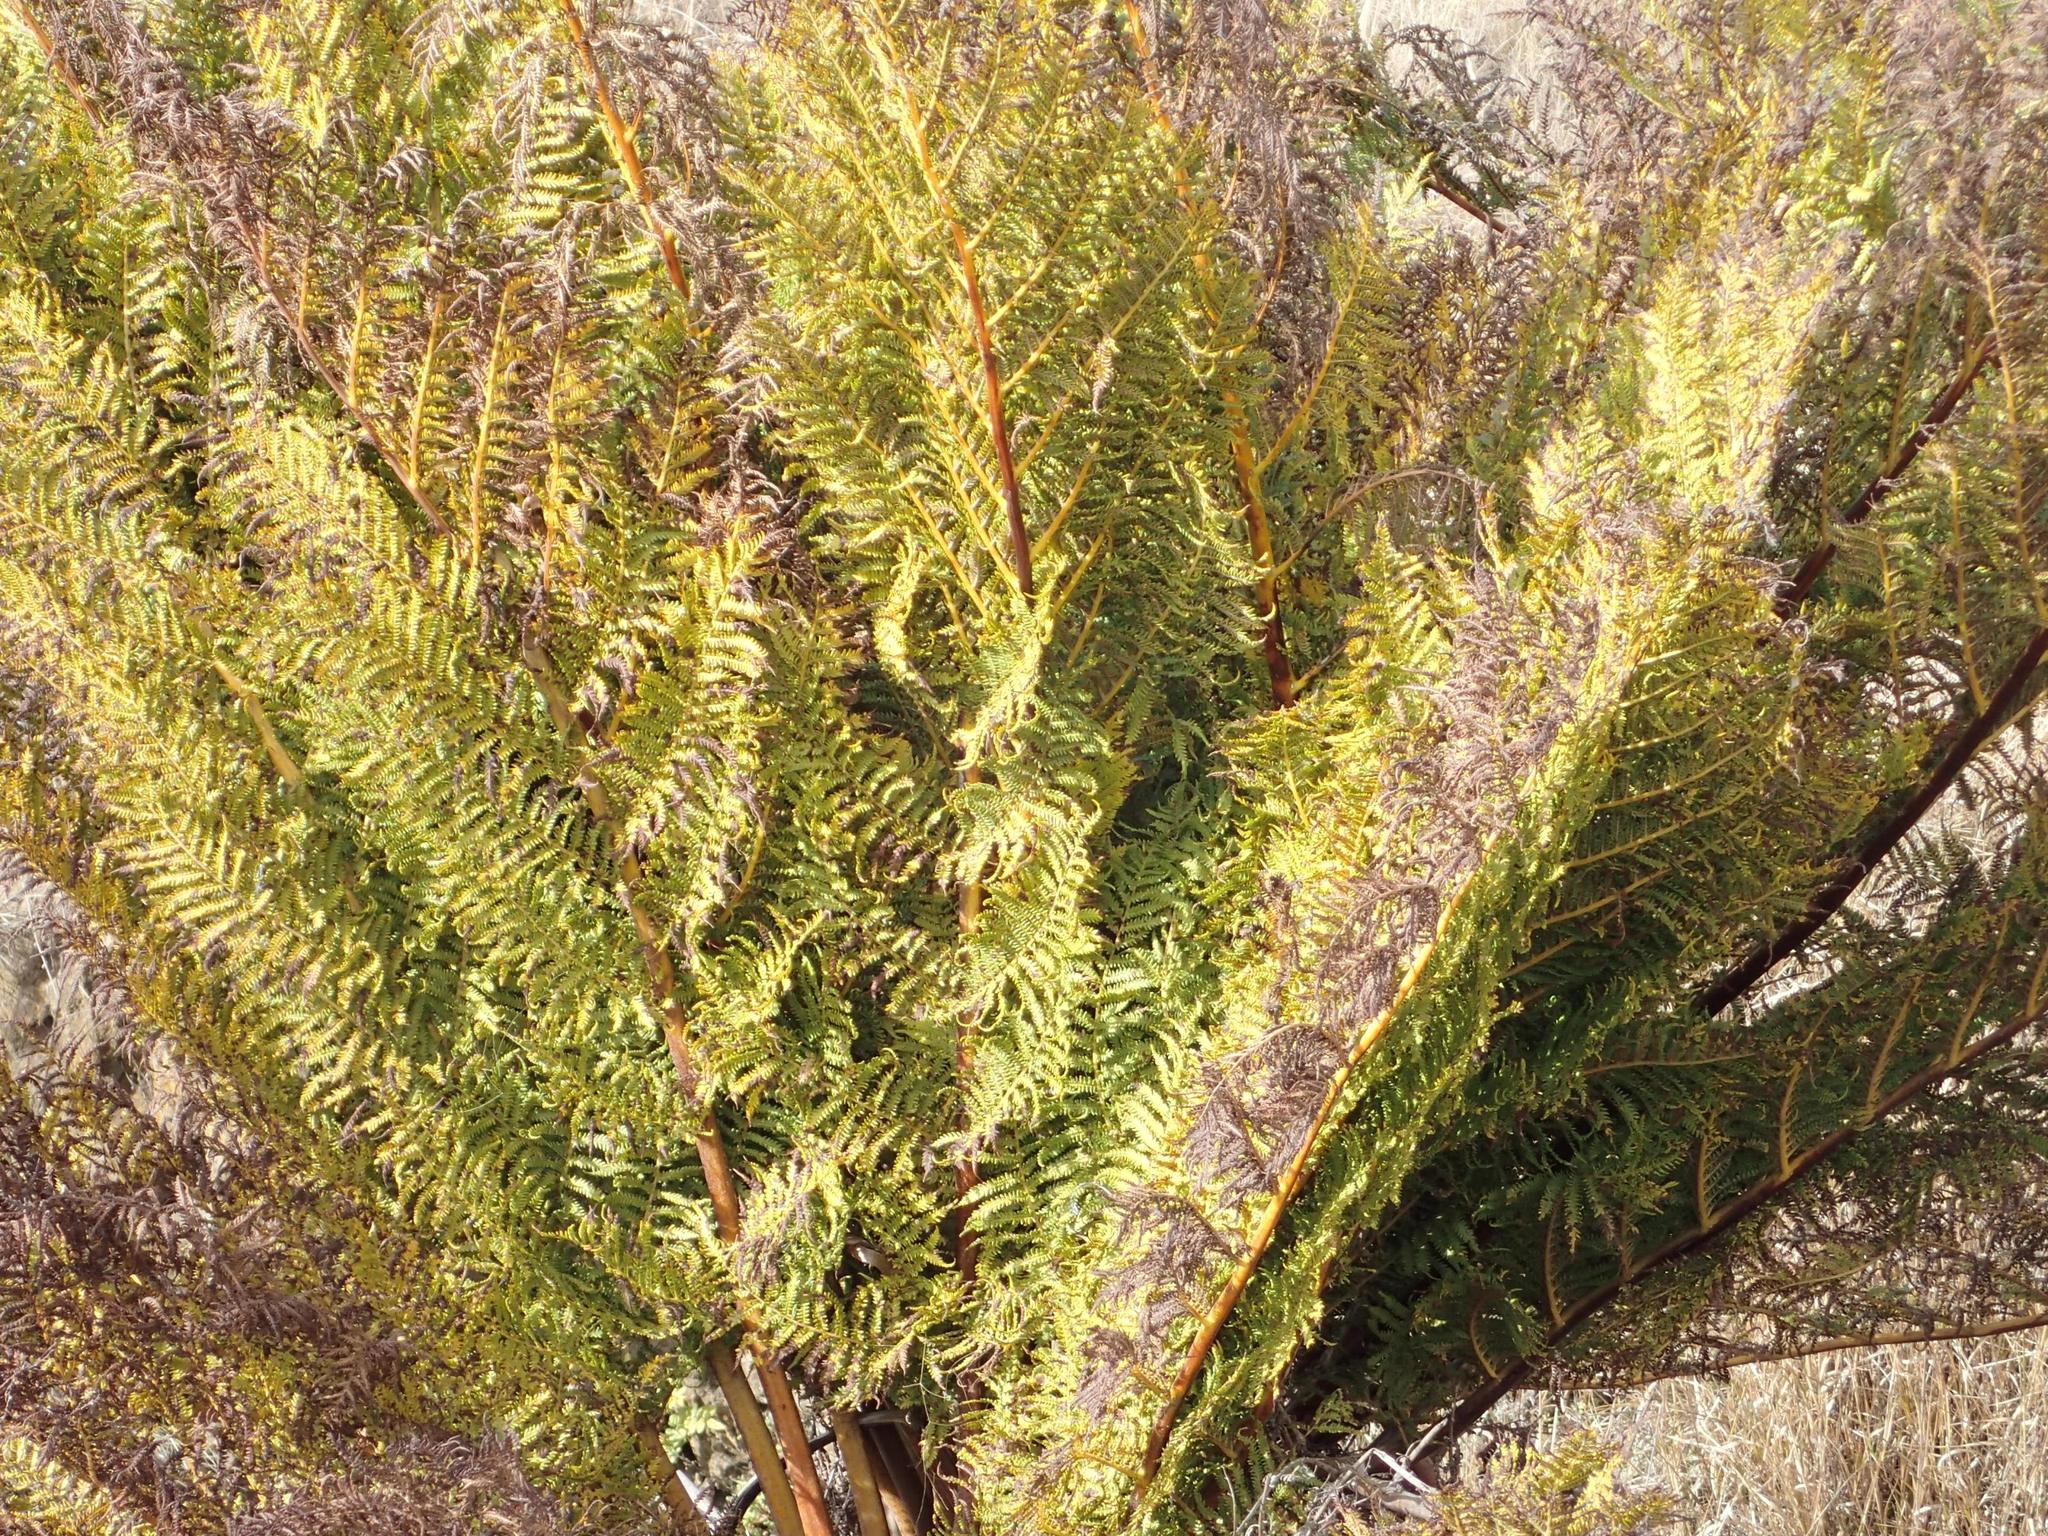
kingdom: Plantae
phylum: Tracheophyta
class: Polypodiopsida
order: Cyatheales
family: Cyatheaceae
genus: Alsophila
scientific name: Alsophila dregei
